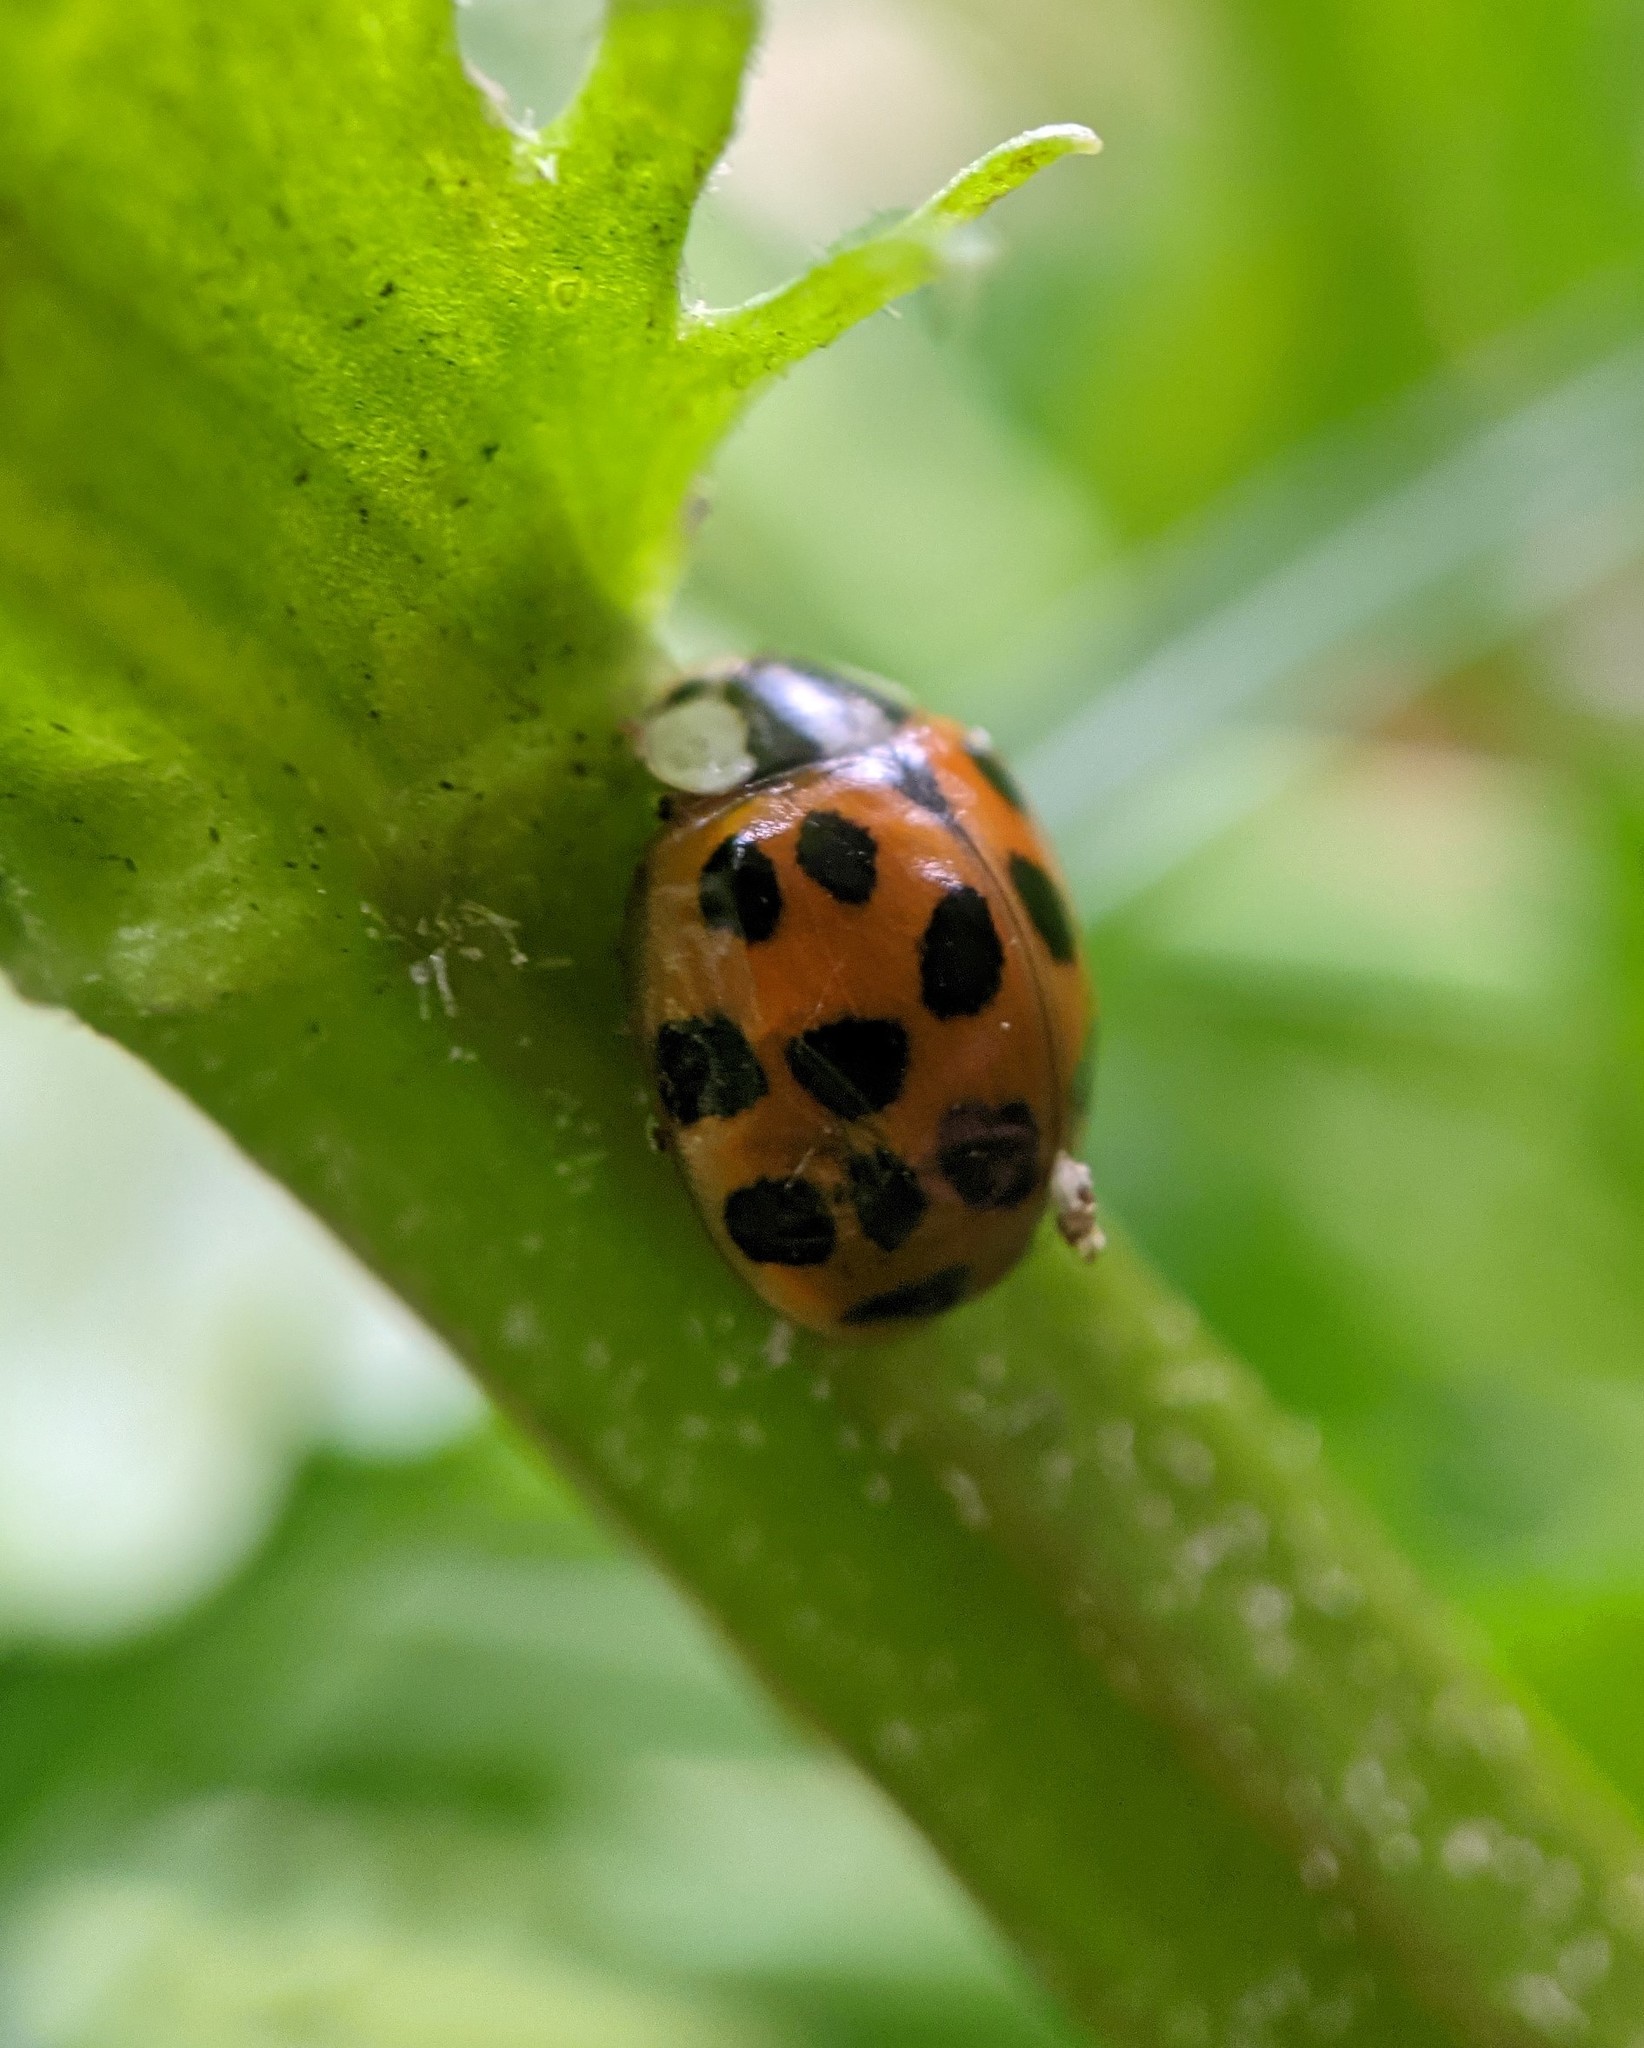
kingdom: Animalia
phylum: Arthropoda
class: Insecta
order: Coleoptera
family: Coccinellidae
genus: Harmonia
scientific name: Harmonia axyridis
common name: Harlequin ladybird
